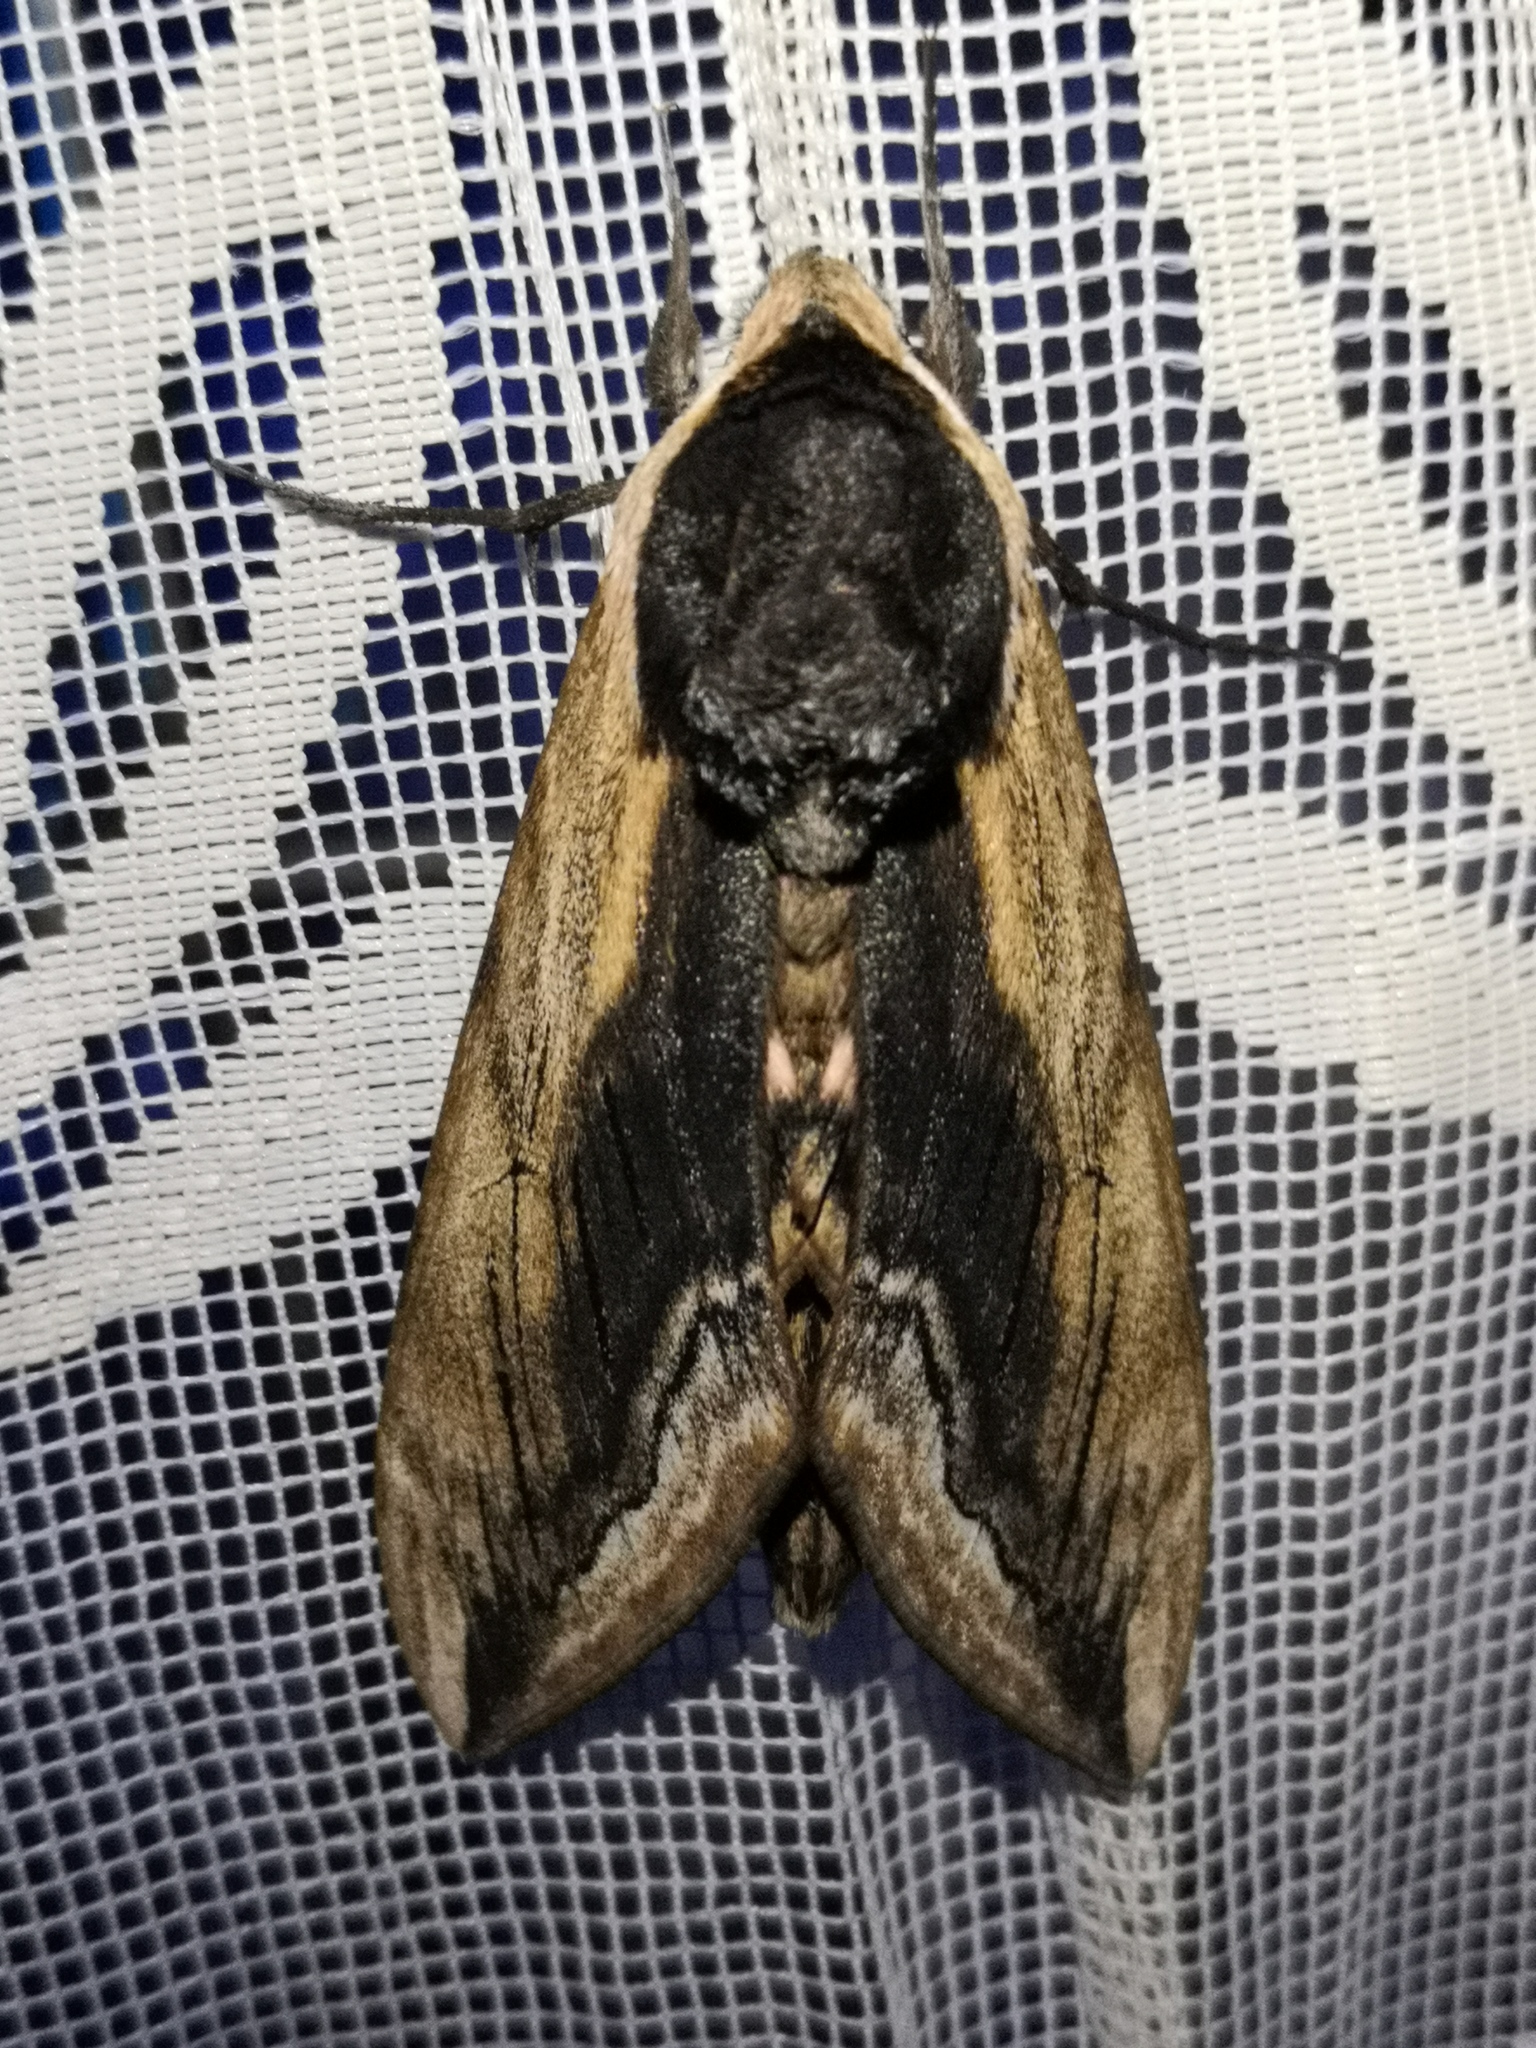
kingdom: Animalia
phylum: Arthropoda
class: Insecta
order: Lepidoptera
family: Sphingidae
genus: Sphinx
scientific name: Sphinx ligustri
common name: Privet hawk-moth
